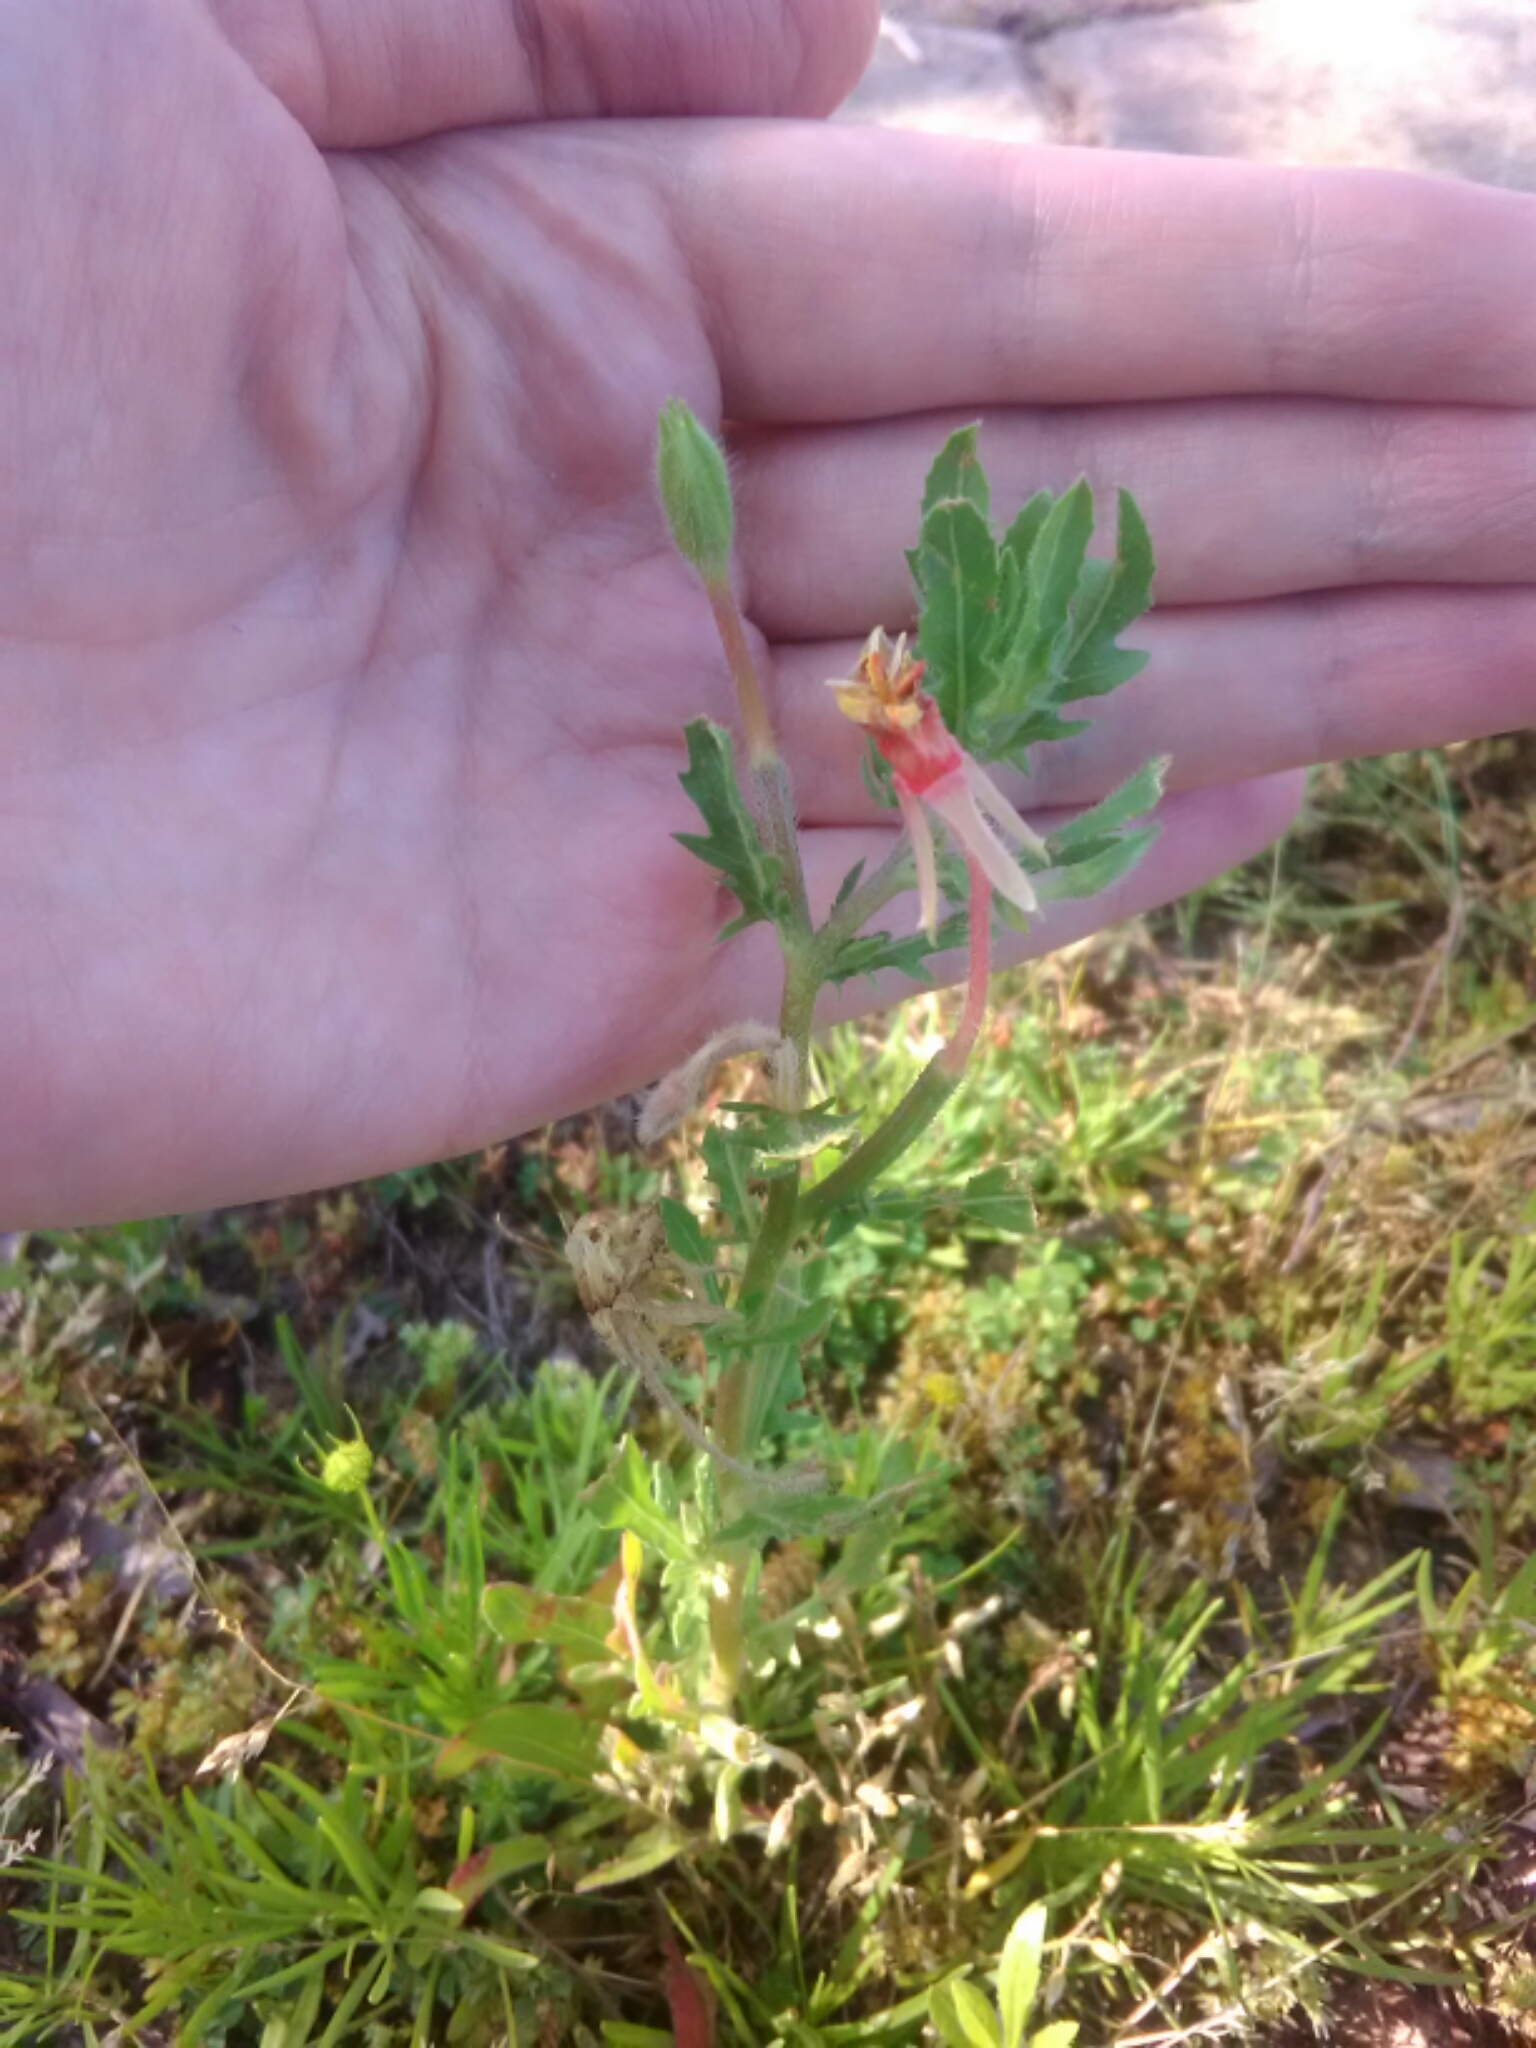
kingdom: Plantae
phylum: Tracheophyta
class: Magnoliopsida
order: Myrtales
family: Onagraceae
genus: Oenothera
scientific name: Oenothera laciniata
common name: Cut-leaved evening-primrose
